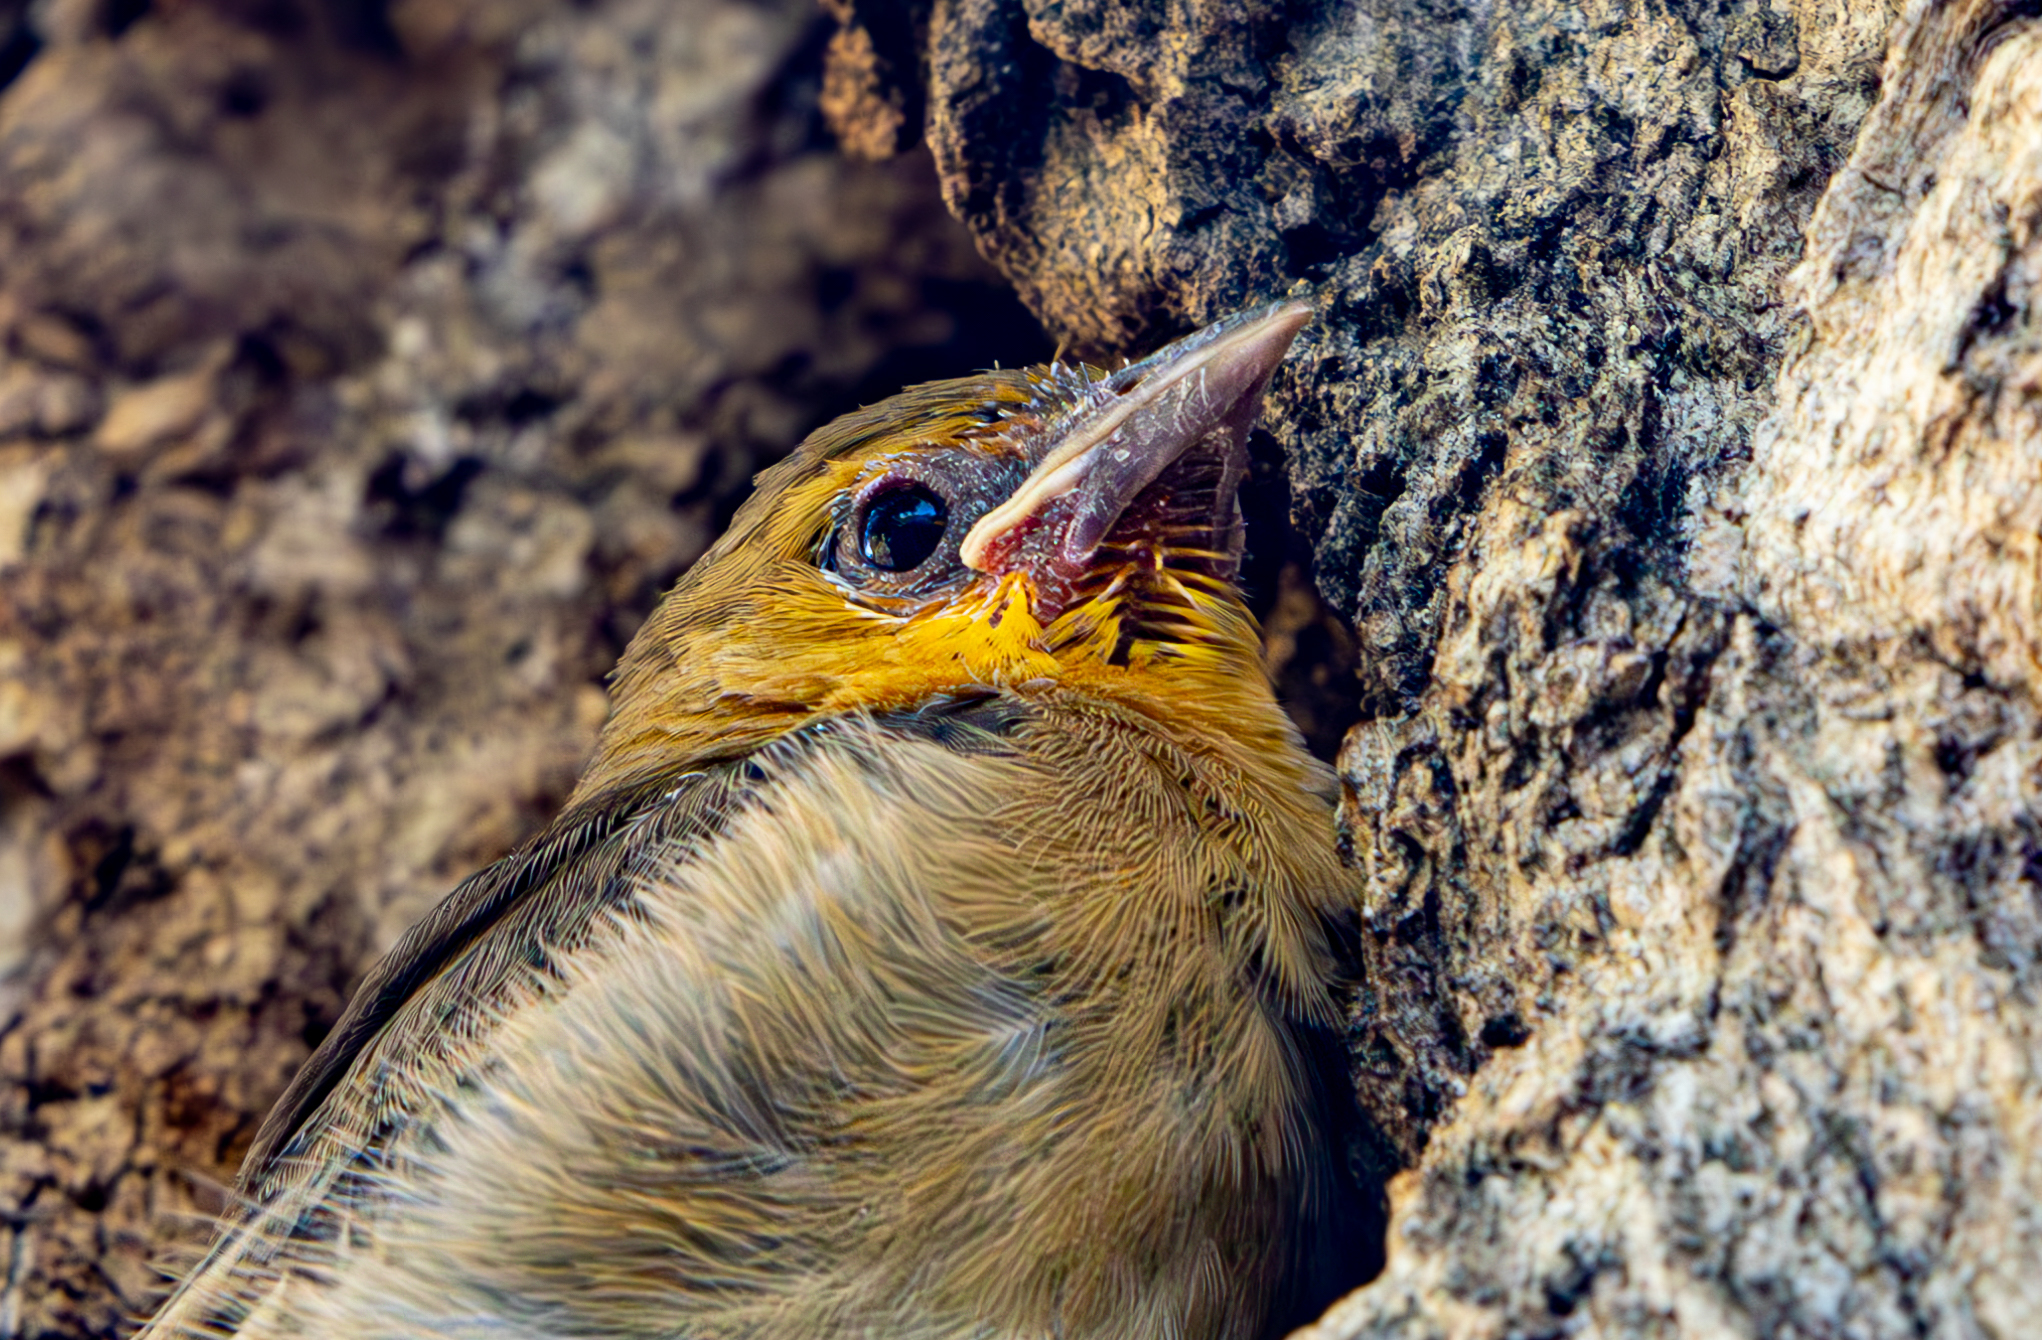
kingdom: Animalia
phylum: Chordata
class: Aves
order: Passeriformes
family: Icteridae
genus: Icterus
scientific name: Icterus bullockii
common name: Bullock's oriole
